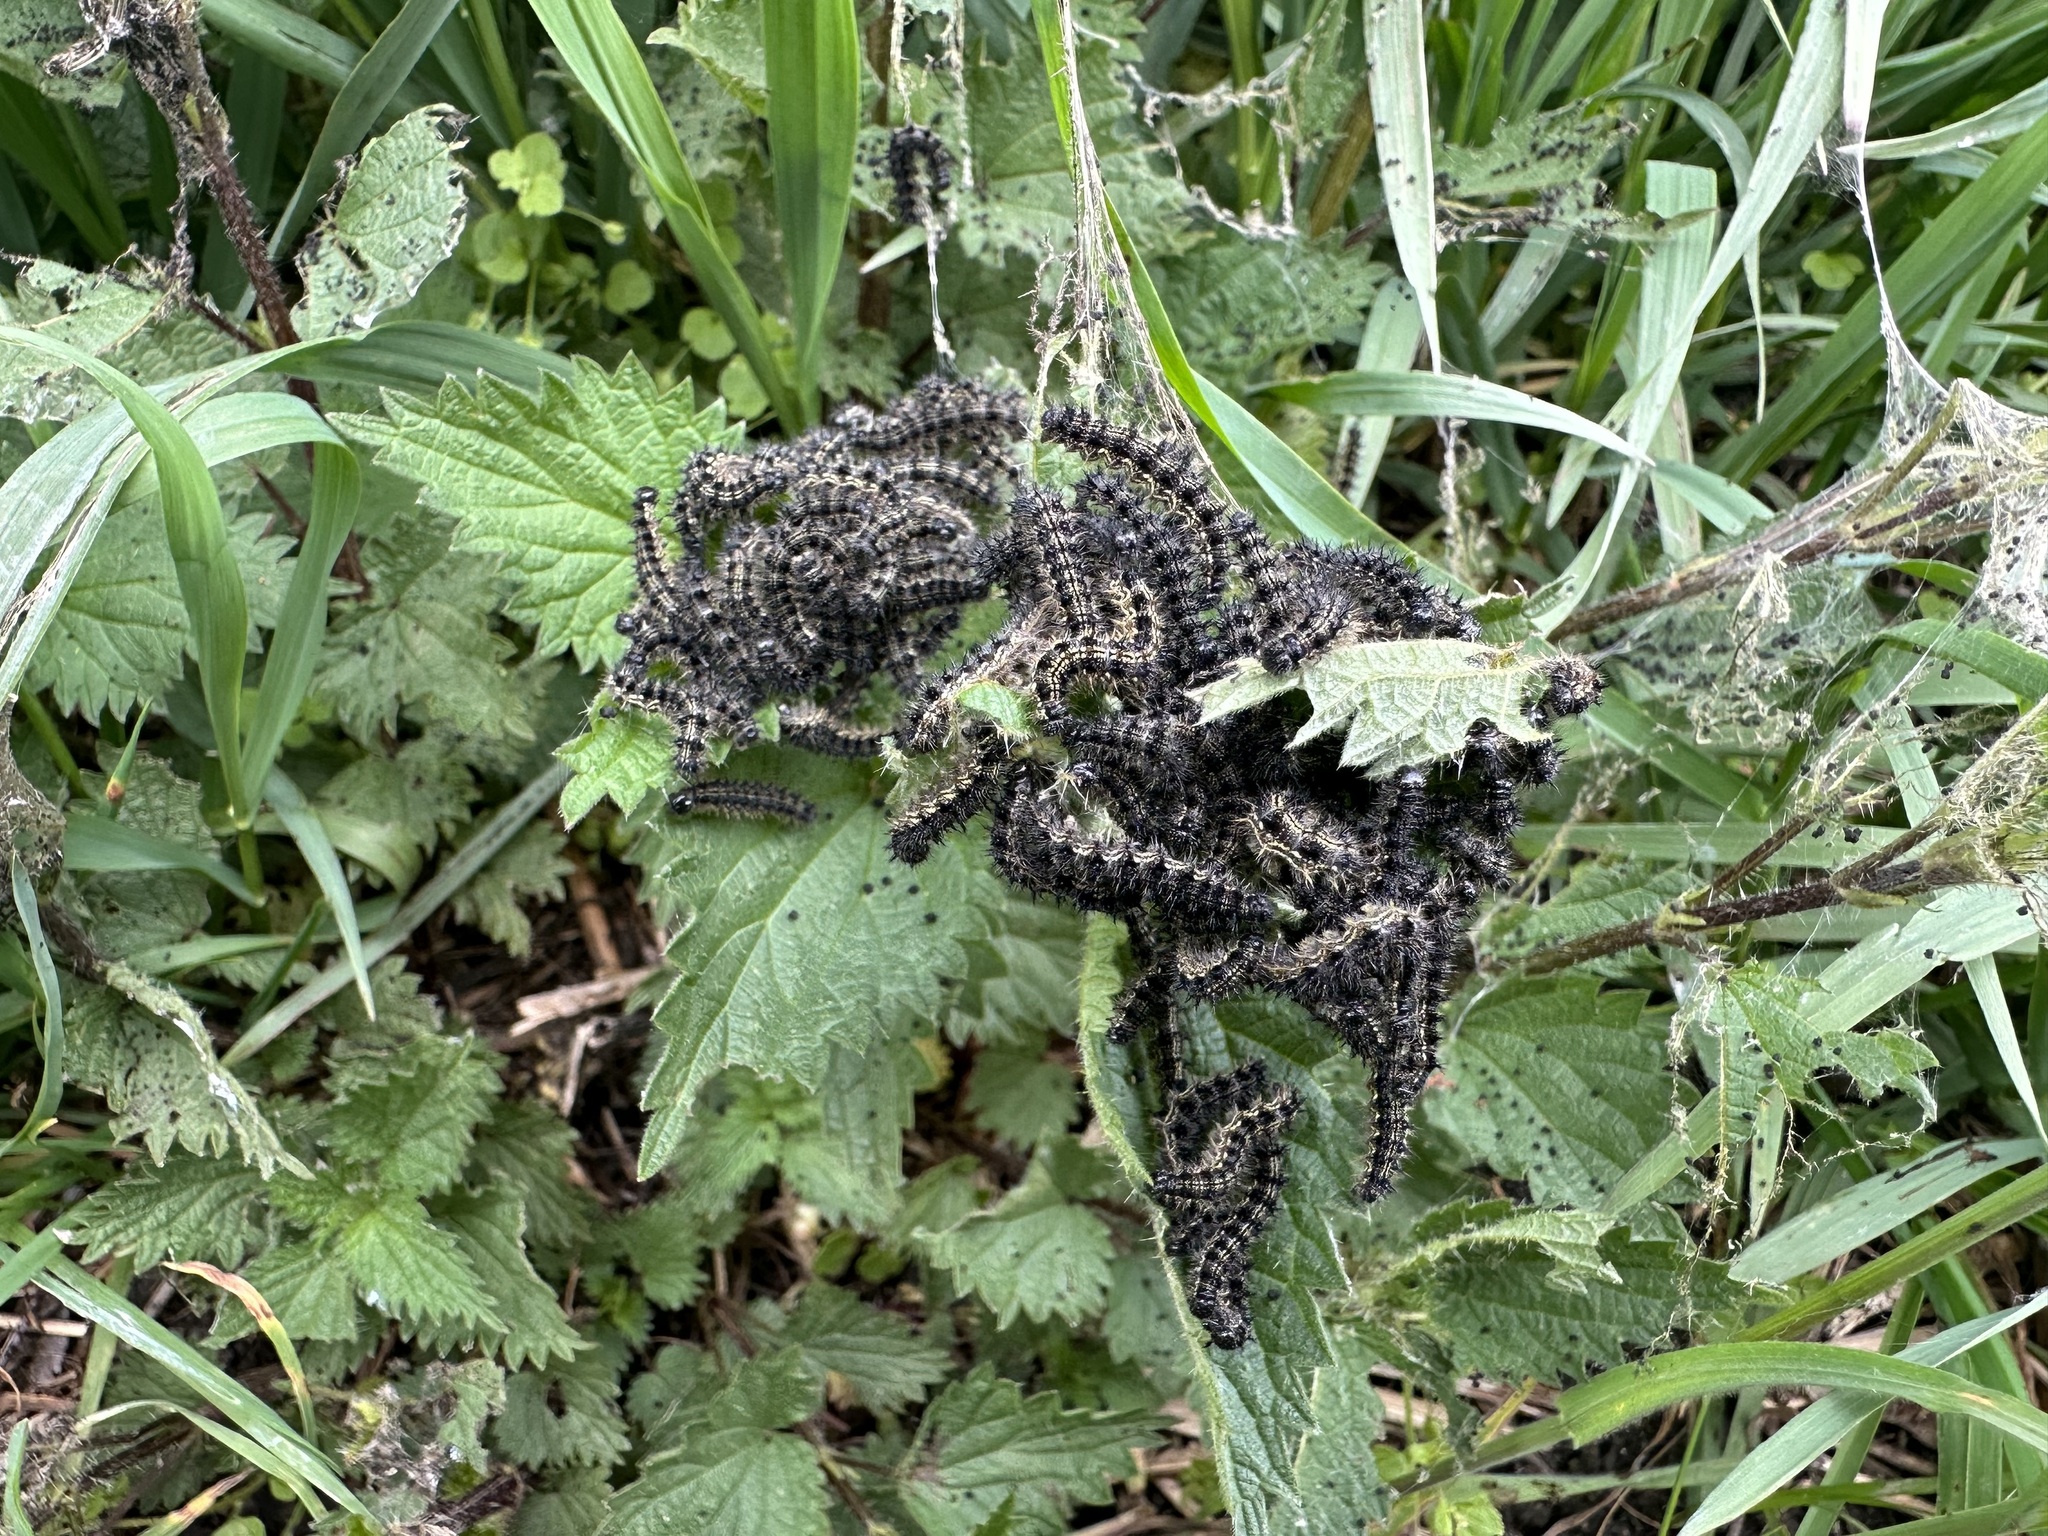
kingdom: Animalia
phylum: Arthropoda
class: Insecta
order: Lepidoptera
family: Nymphalidae
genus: Aglais
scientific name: Aglais urticae
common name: Small tortoiseshell
